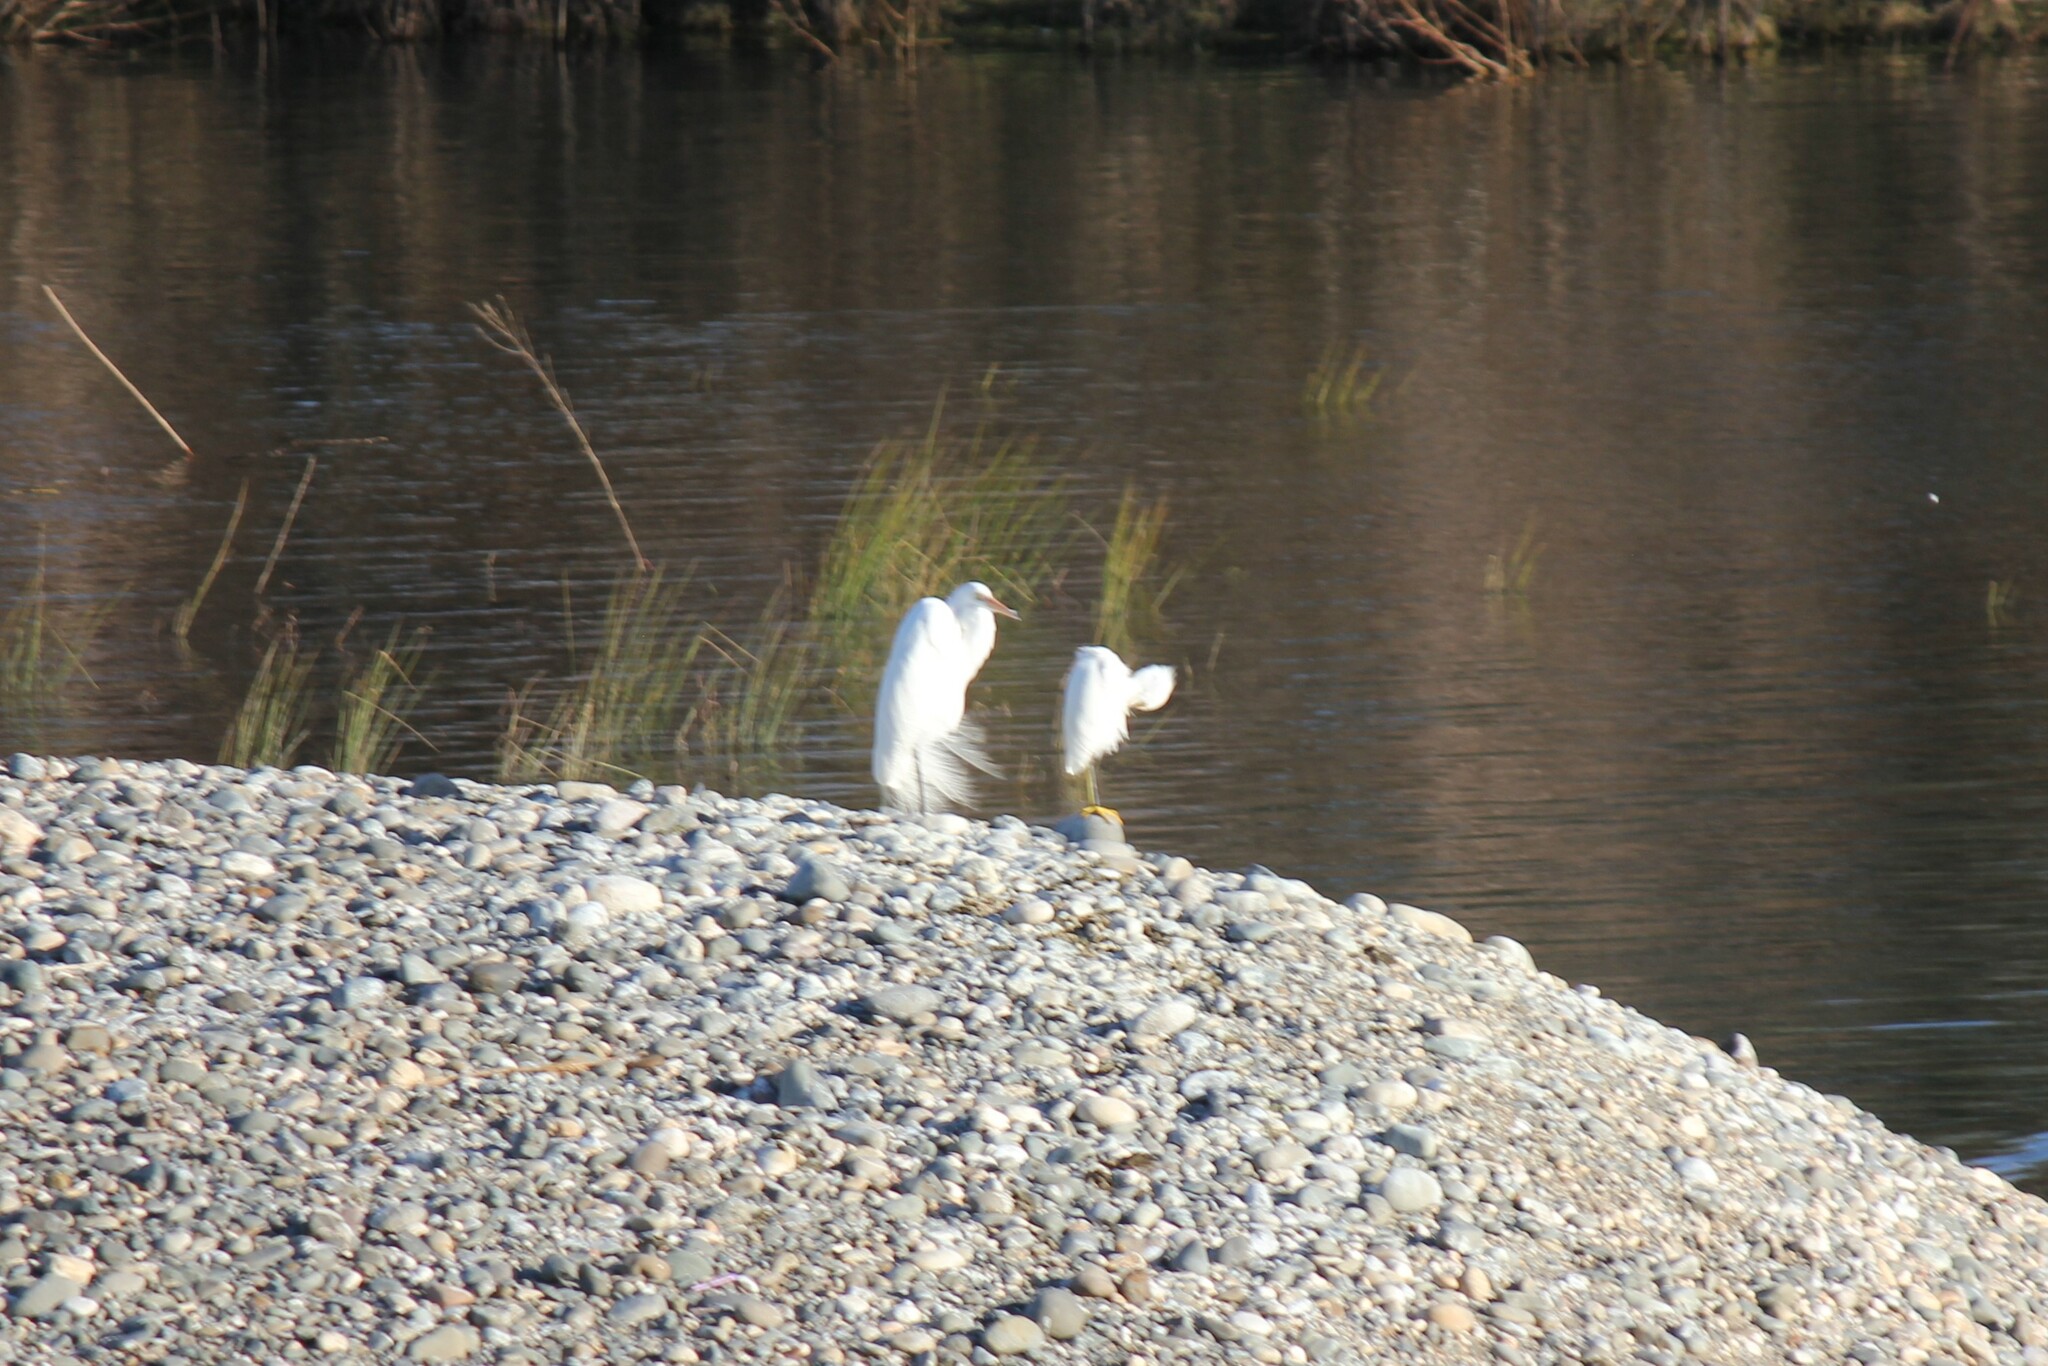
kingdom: Animalia
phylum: Chordata
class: Aves
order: Pelecaniformes
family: Ardeidae
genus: Egretta
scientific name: Egretta thula
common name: Snowy egret
